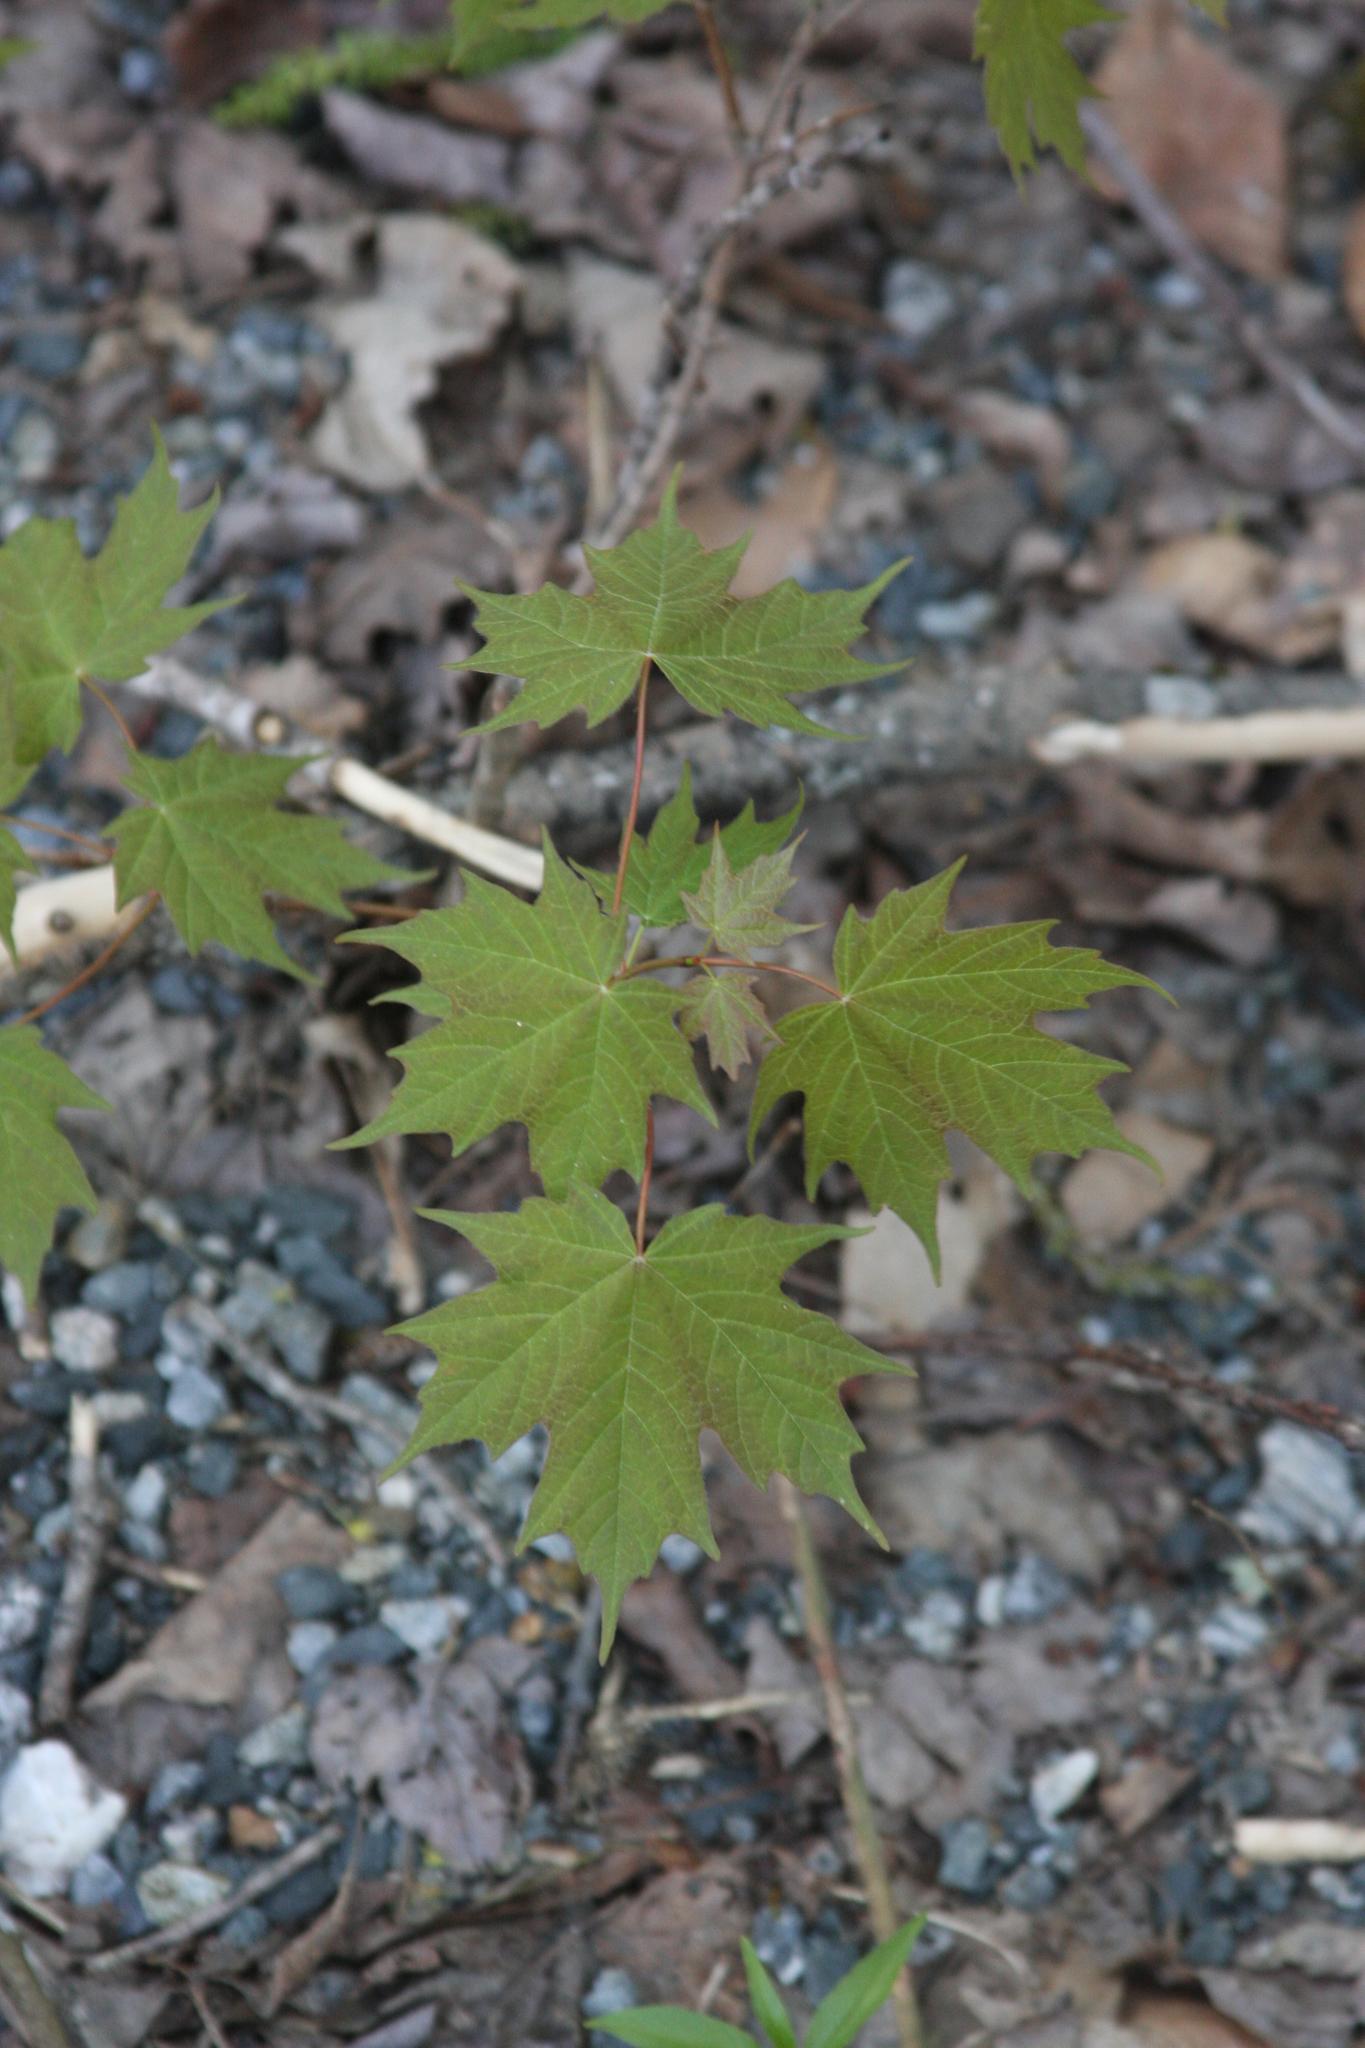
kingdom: Plantae
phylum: Tracheophyta
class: Magnoliopsida
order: Sapindales
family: Sapindaceae
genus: Acer
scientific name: Acer saccharum
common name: Sugar maple
